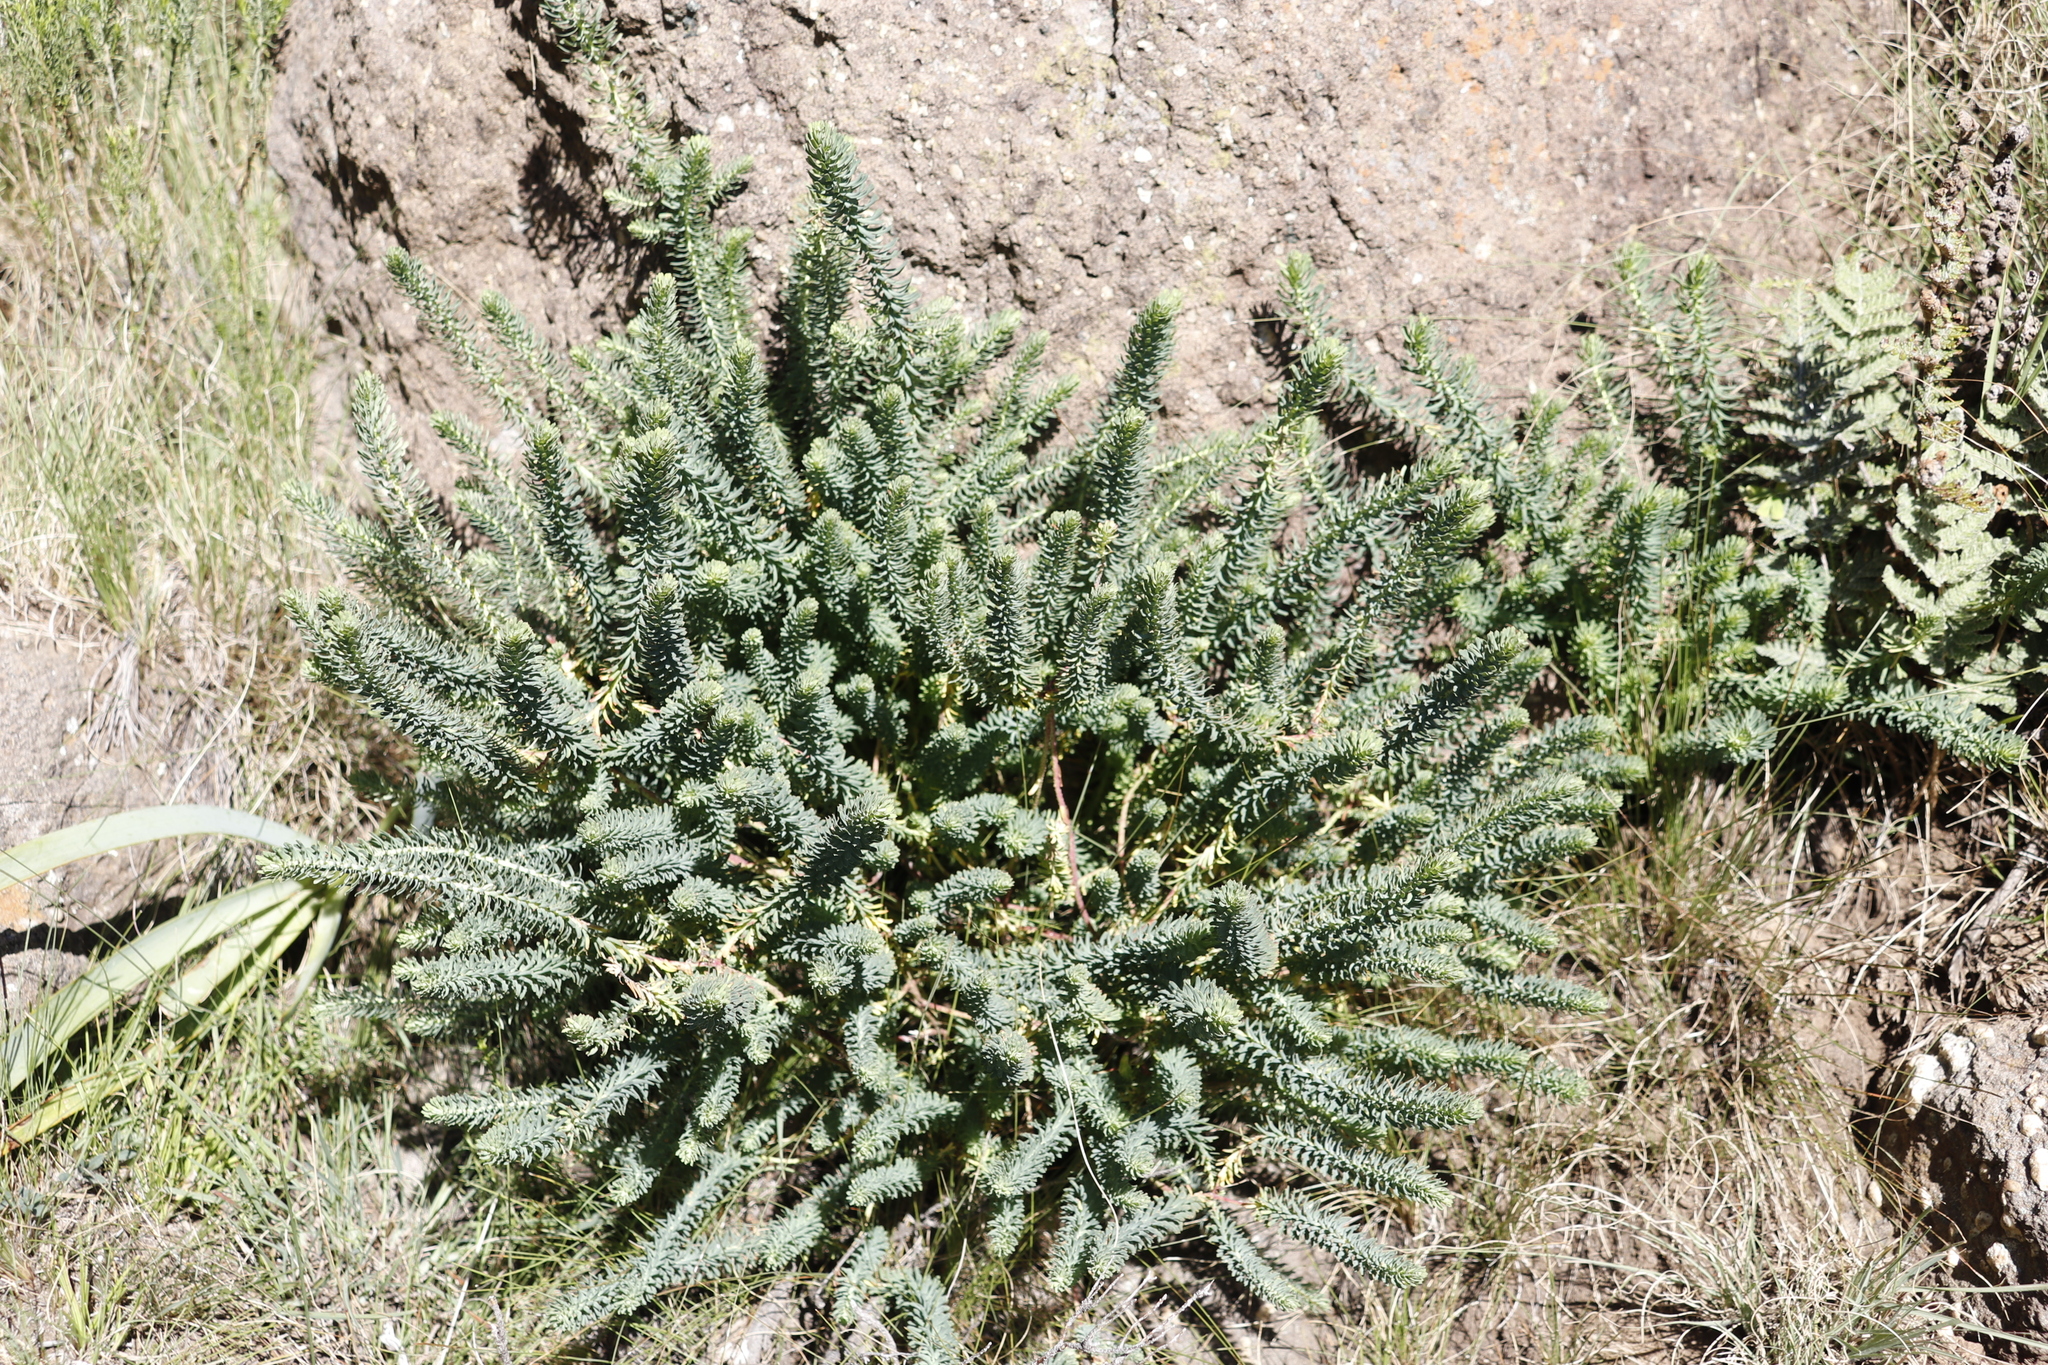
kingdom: Plantae
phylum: Tracheophyta
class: Magnoliopsida
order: Malpighiales
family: Euphorbiaceae
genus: Euphorbia
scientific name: Euphorbia natalensis
